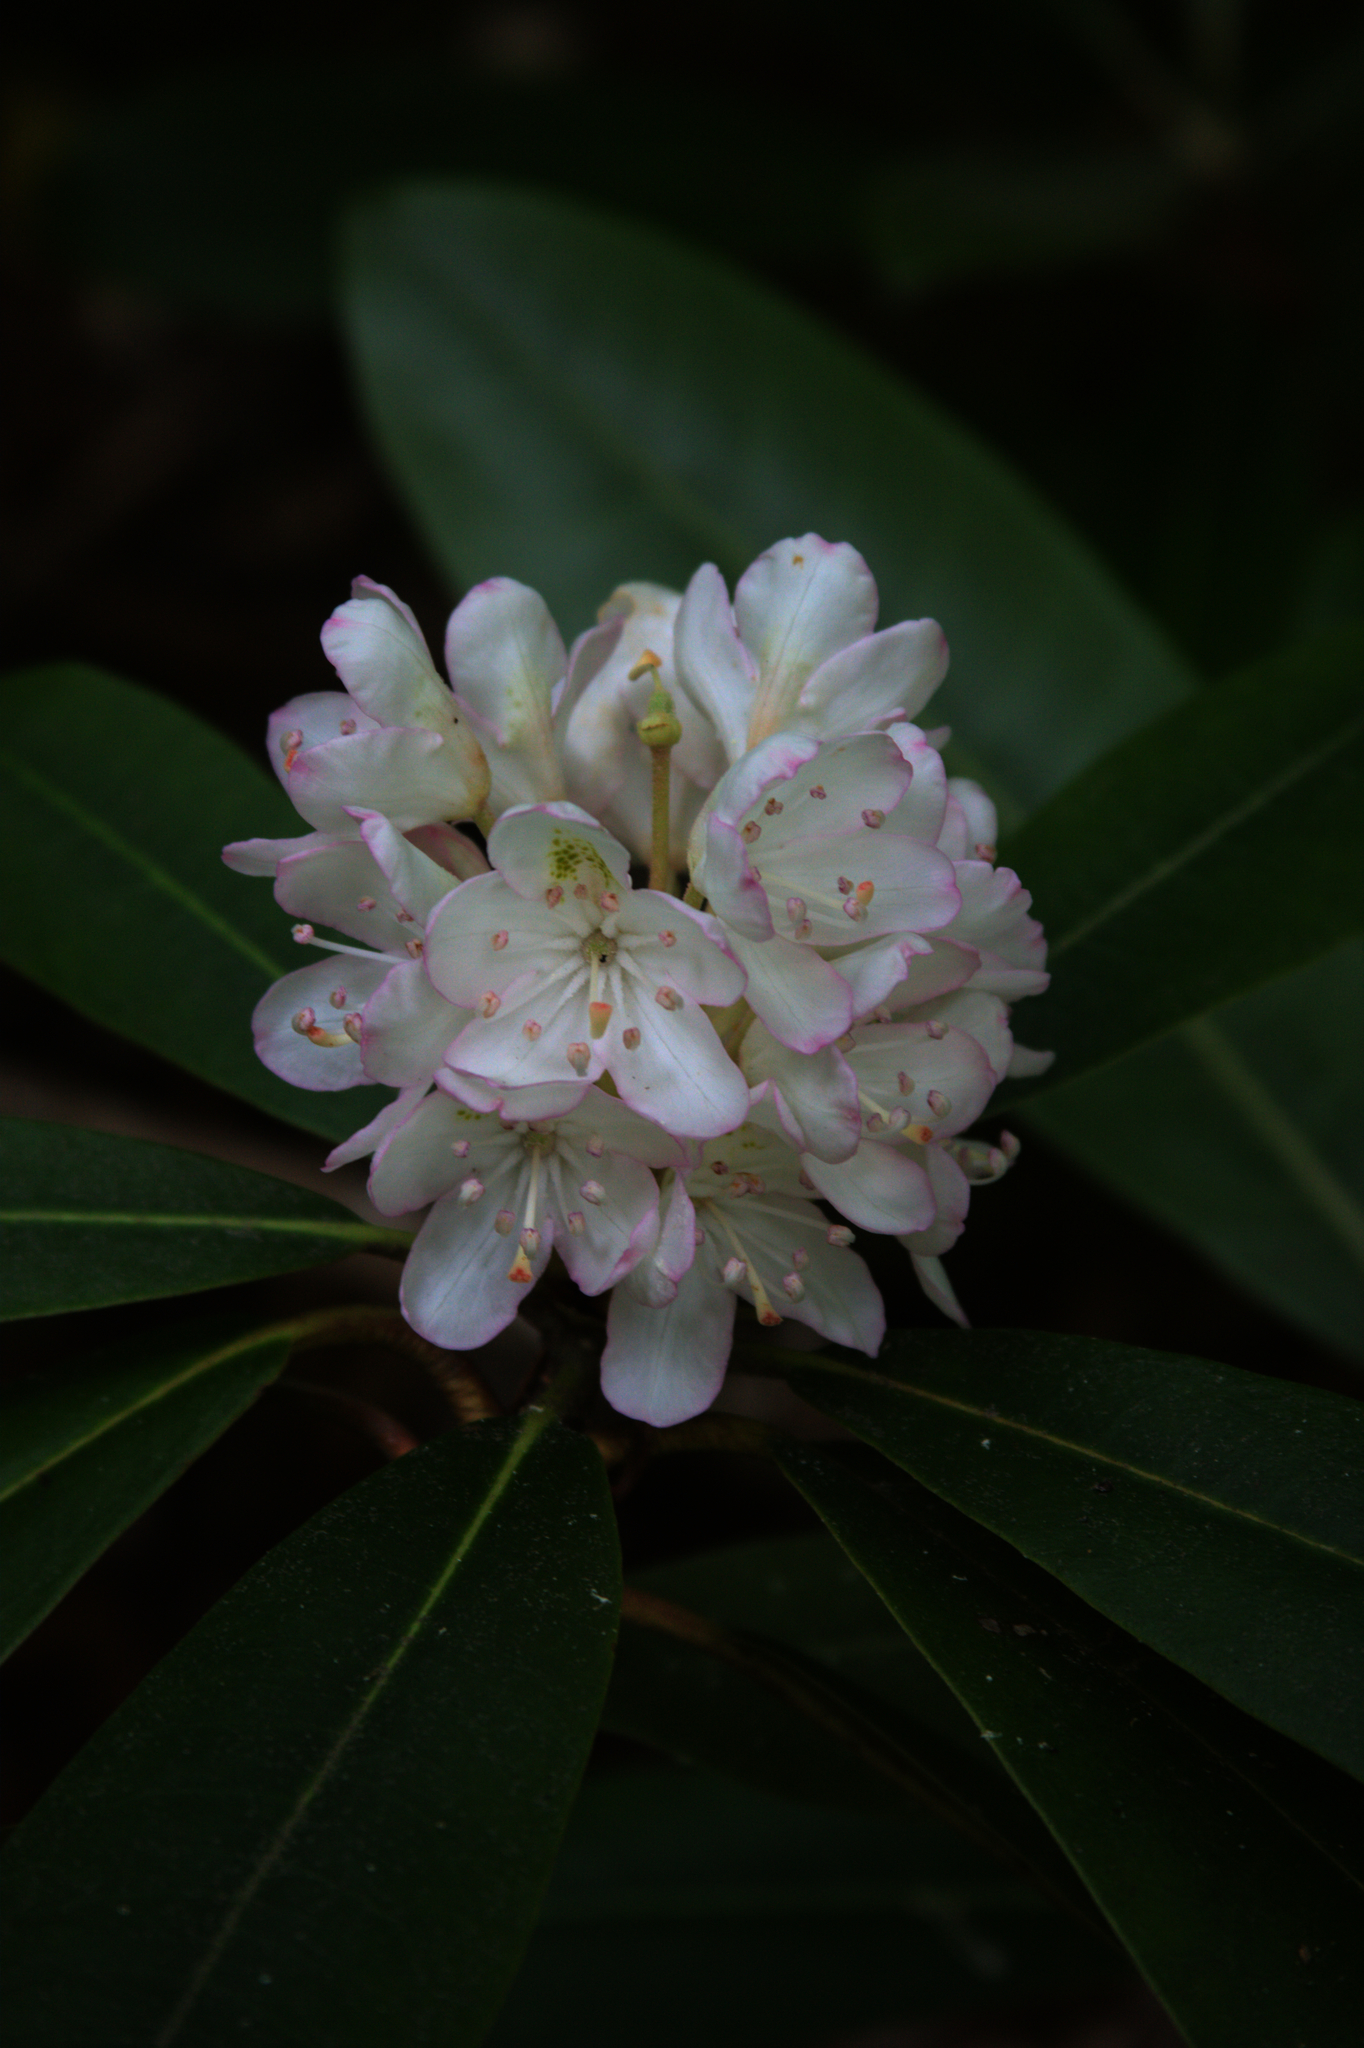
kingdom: Plantae
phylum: Tracheophyta
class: Magnoliopsida
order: Ericales
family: Ericaceae
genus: Rhododendron
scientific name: Rhododendron maximum
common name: Great rhododendron
